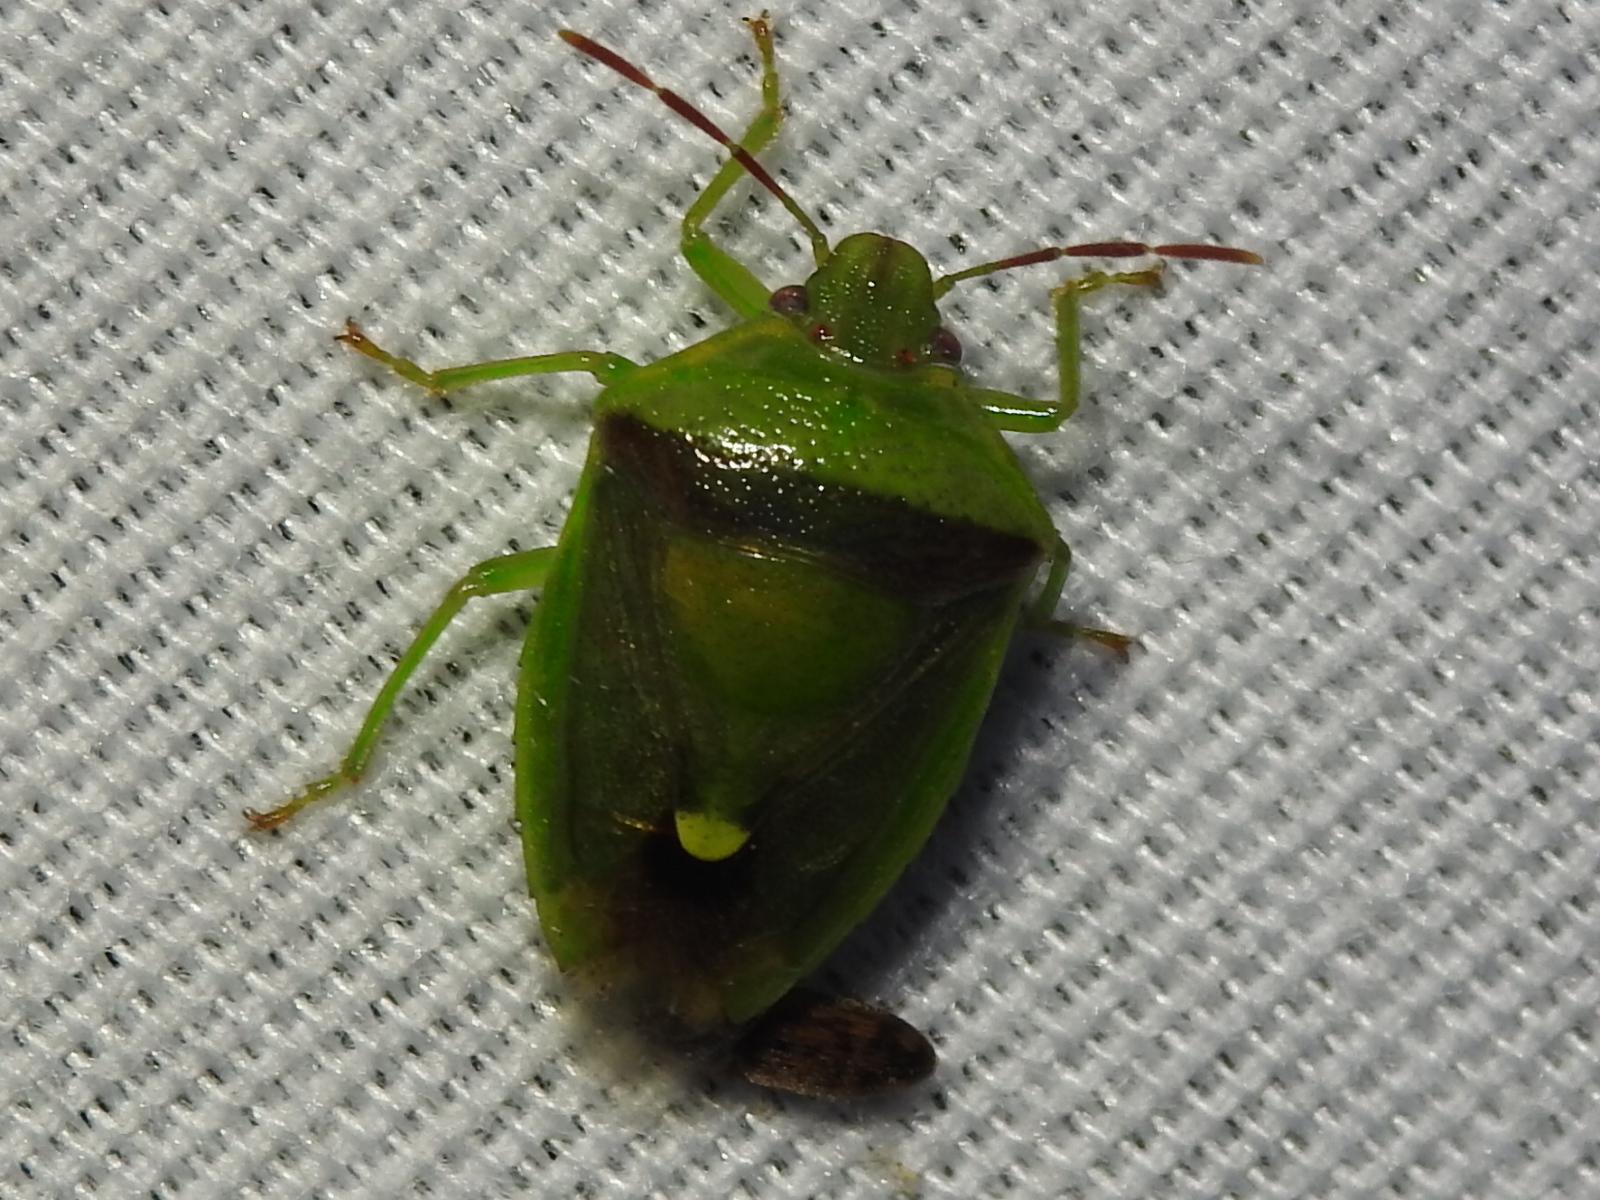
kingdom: Animalia
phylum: Arthropoda
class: Insecta
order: Hemiptera
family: Pentatomidae
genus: Banasa
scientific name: Banasa dimidiata
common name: Green burgundy stink bug
